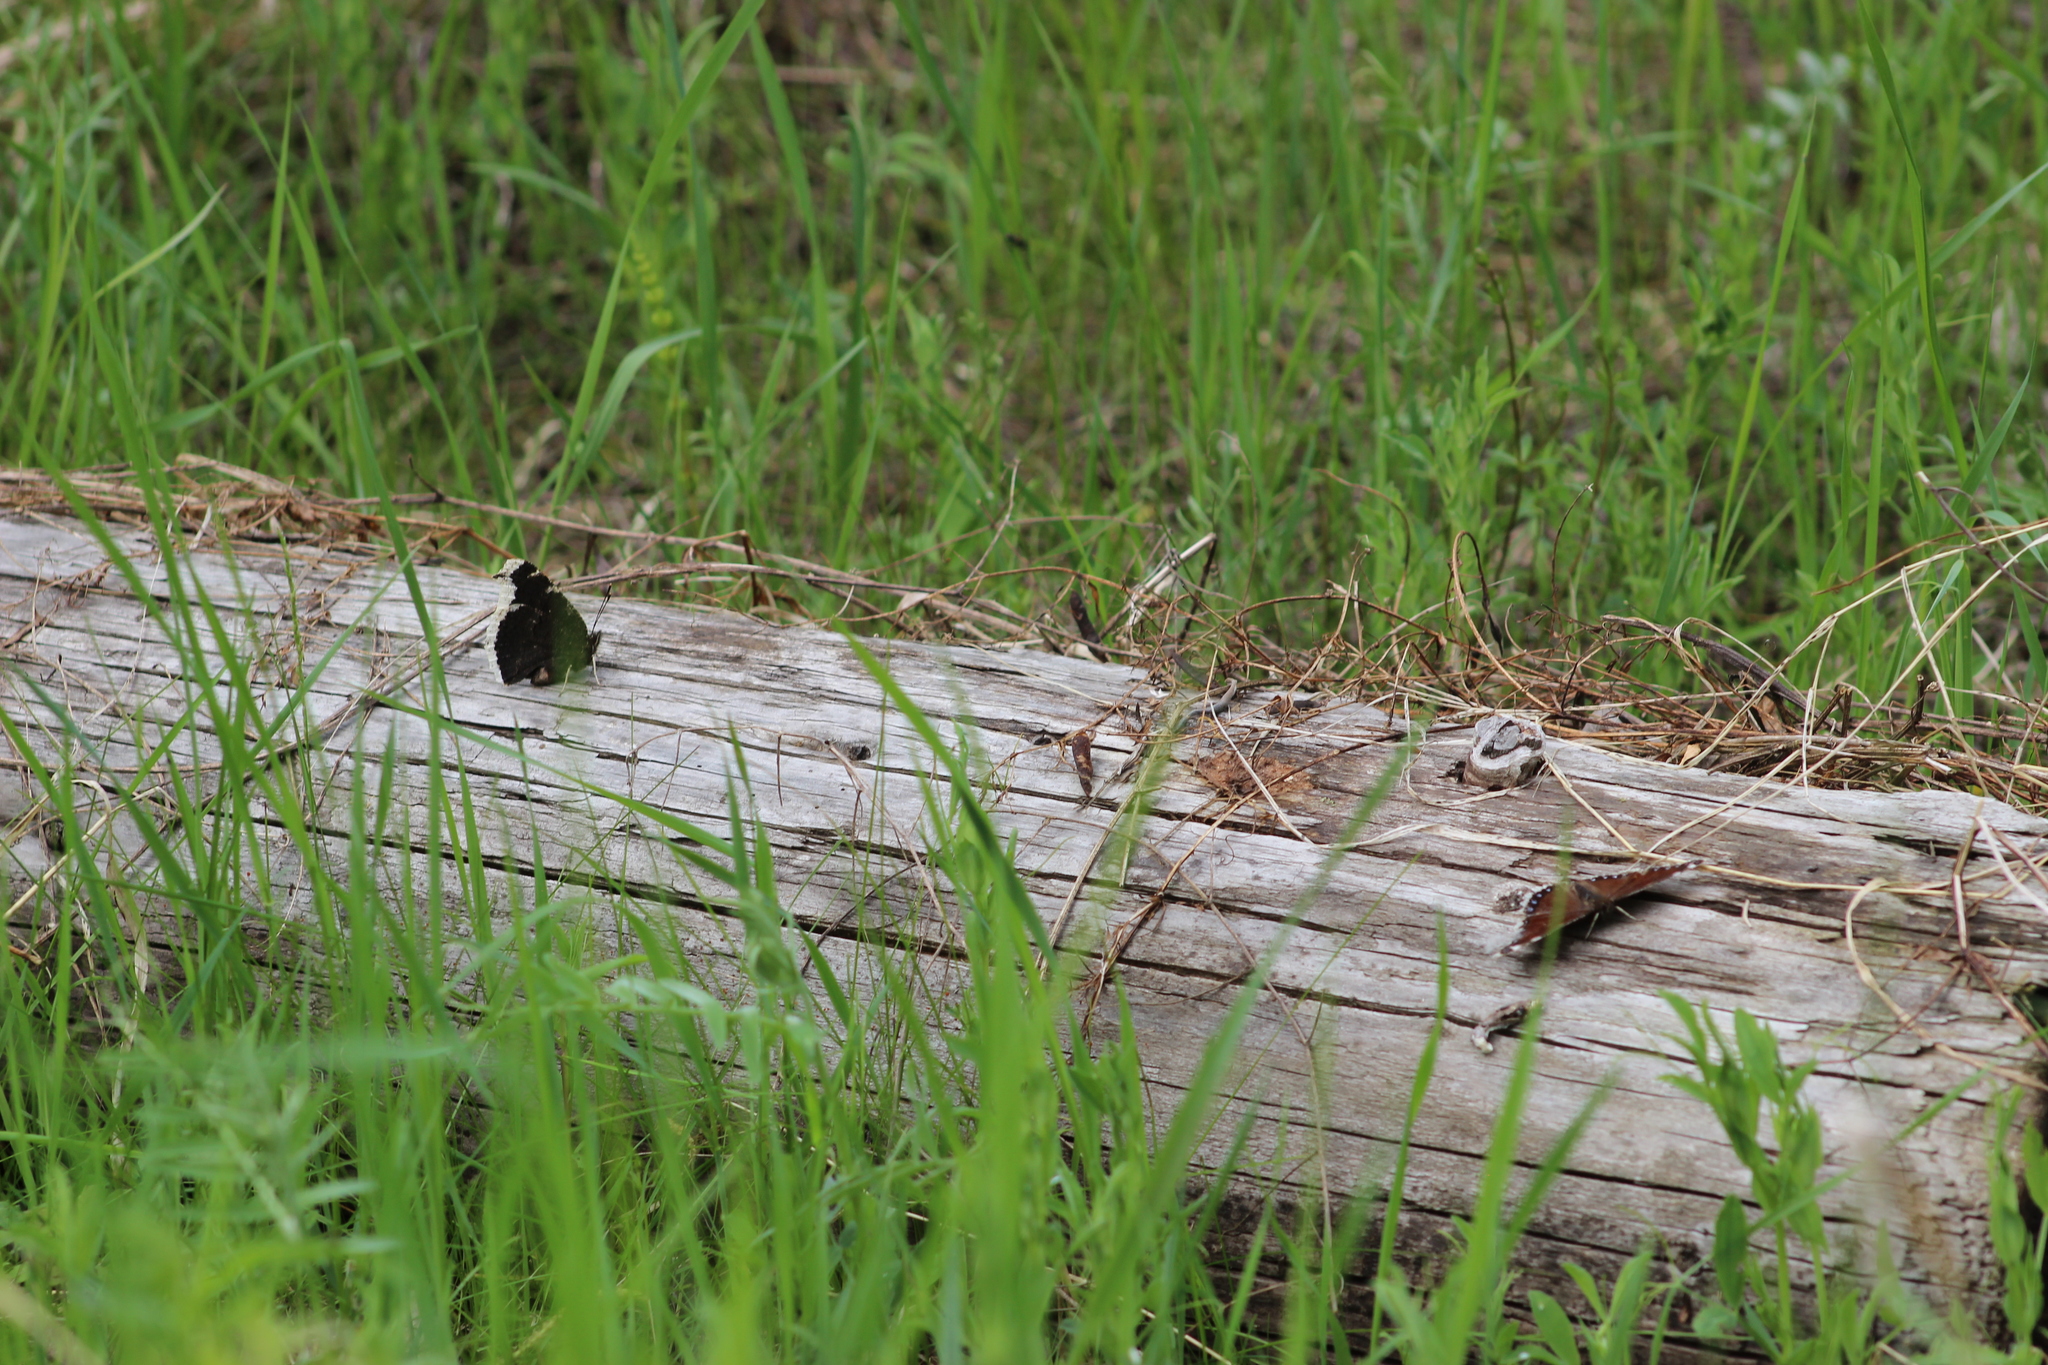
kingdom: Animalia
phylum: Arthropoda
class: Insecta
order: Lepidoptera
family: Nymphalidae
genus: Nymphalis
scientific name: Nymphalis antiopa
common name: Camberwell beauty
